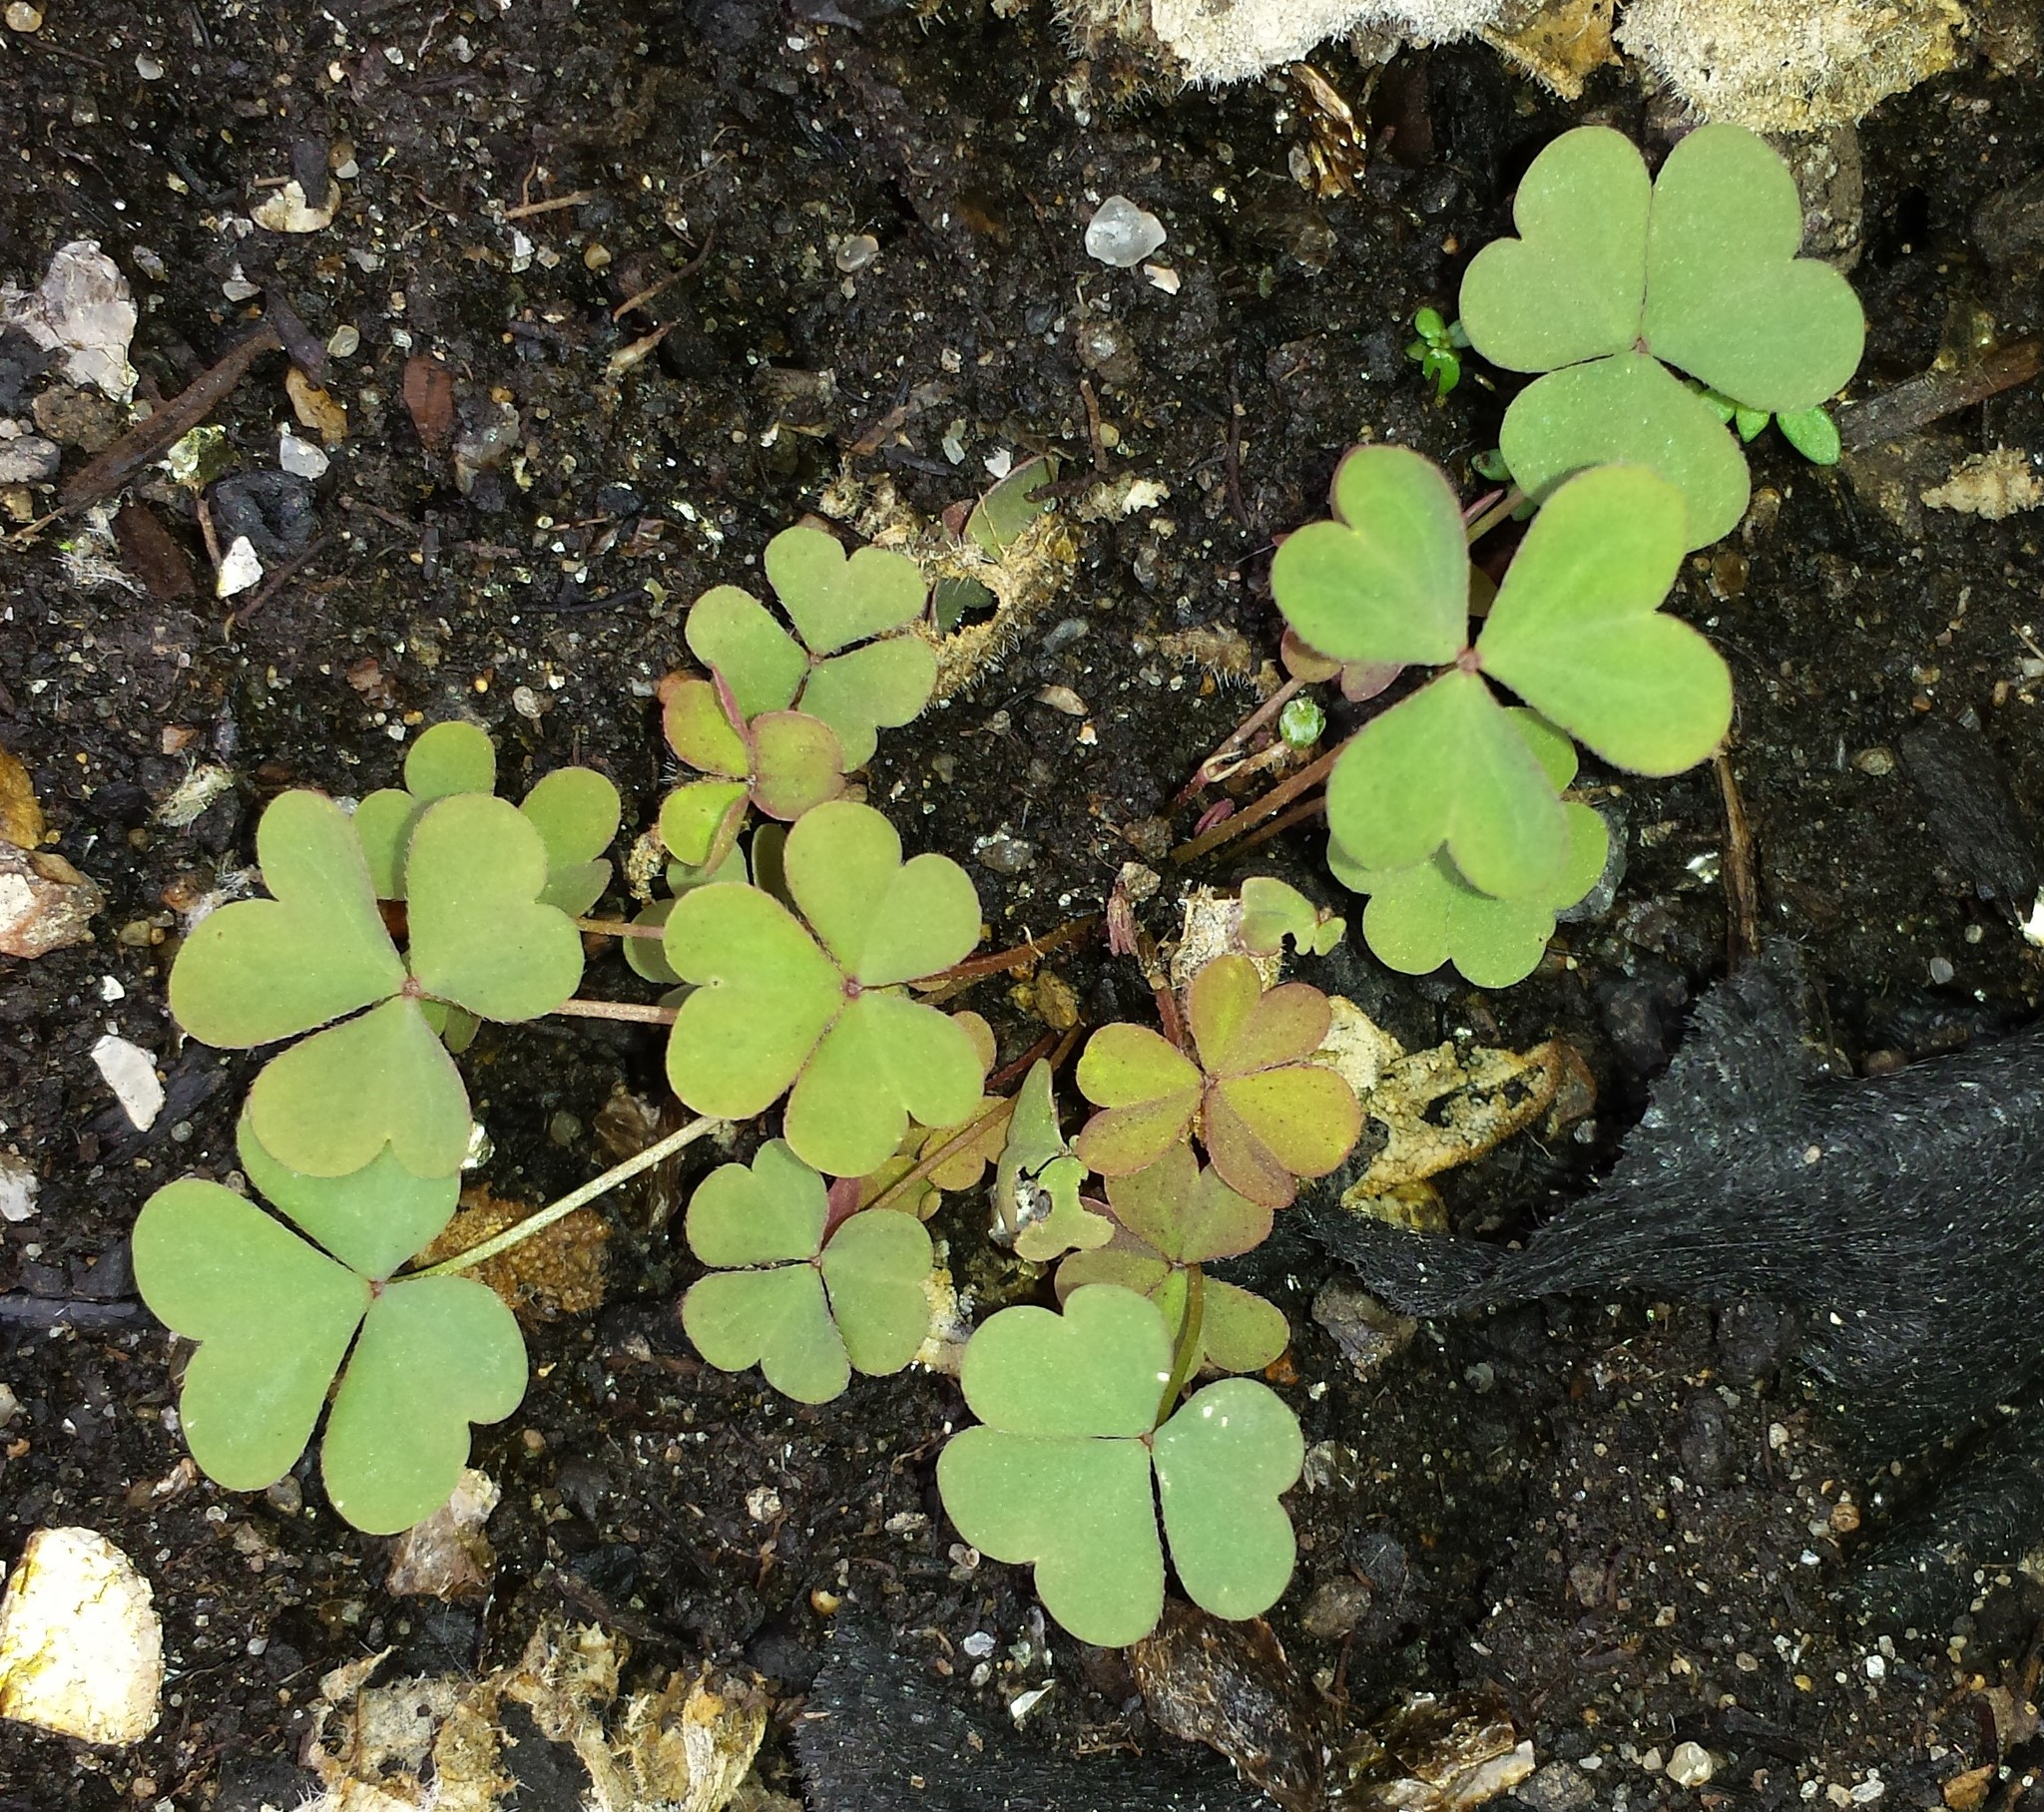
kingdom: Plantae
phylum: Tracheophyta
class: Magnoliopsida
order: Oxalidales
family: Oxalidaceae
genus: Oxalis
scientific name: Oxalis
